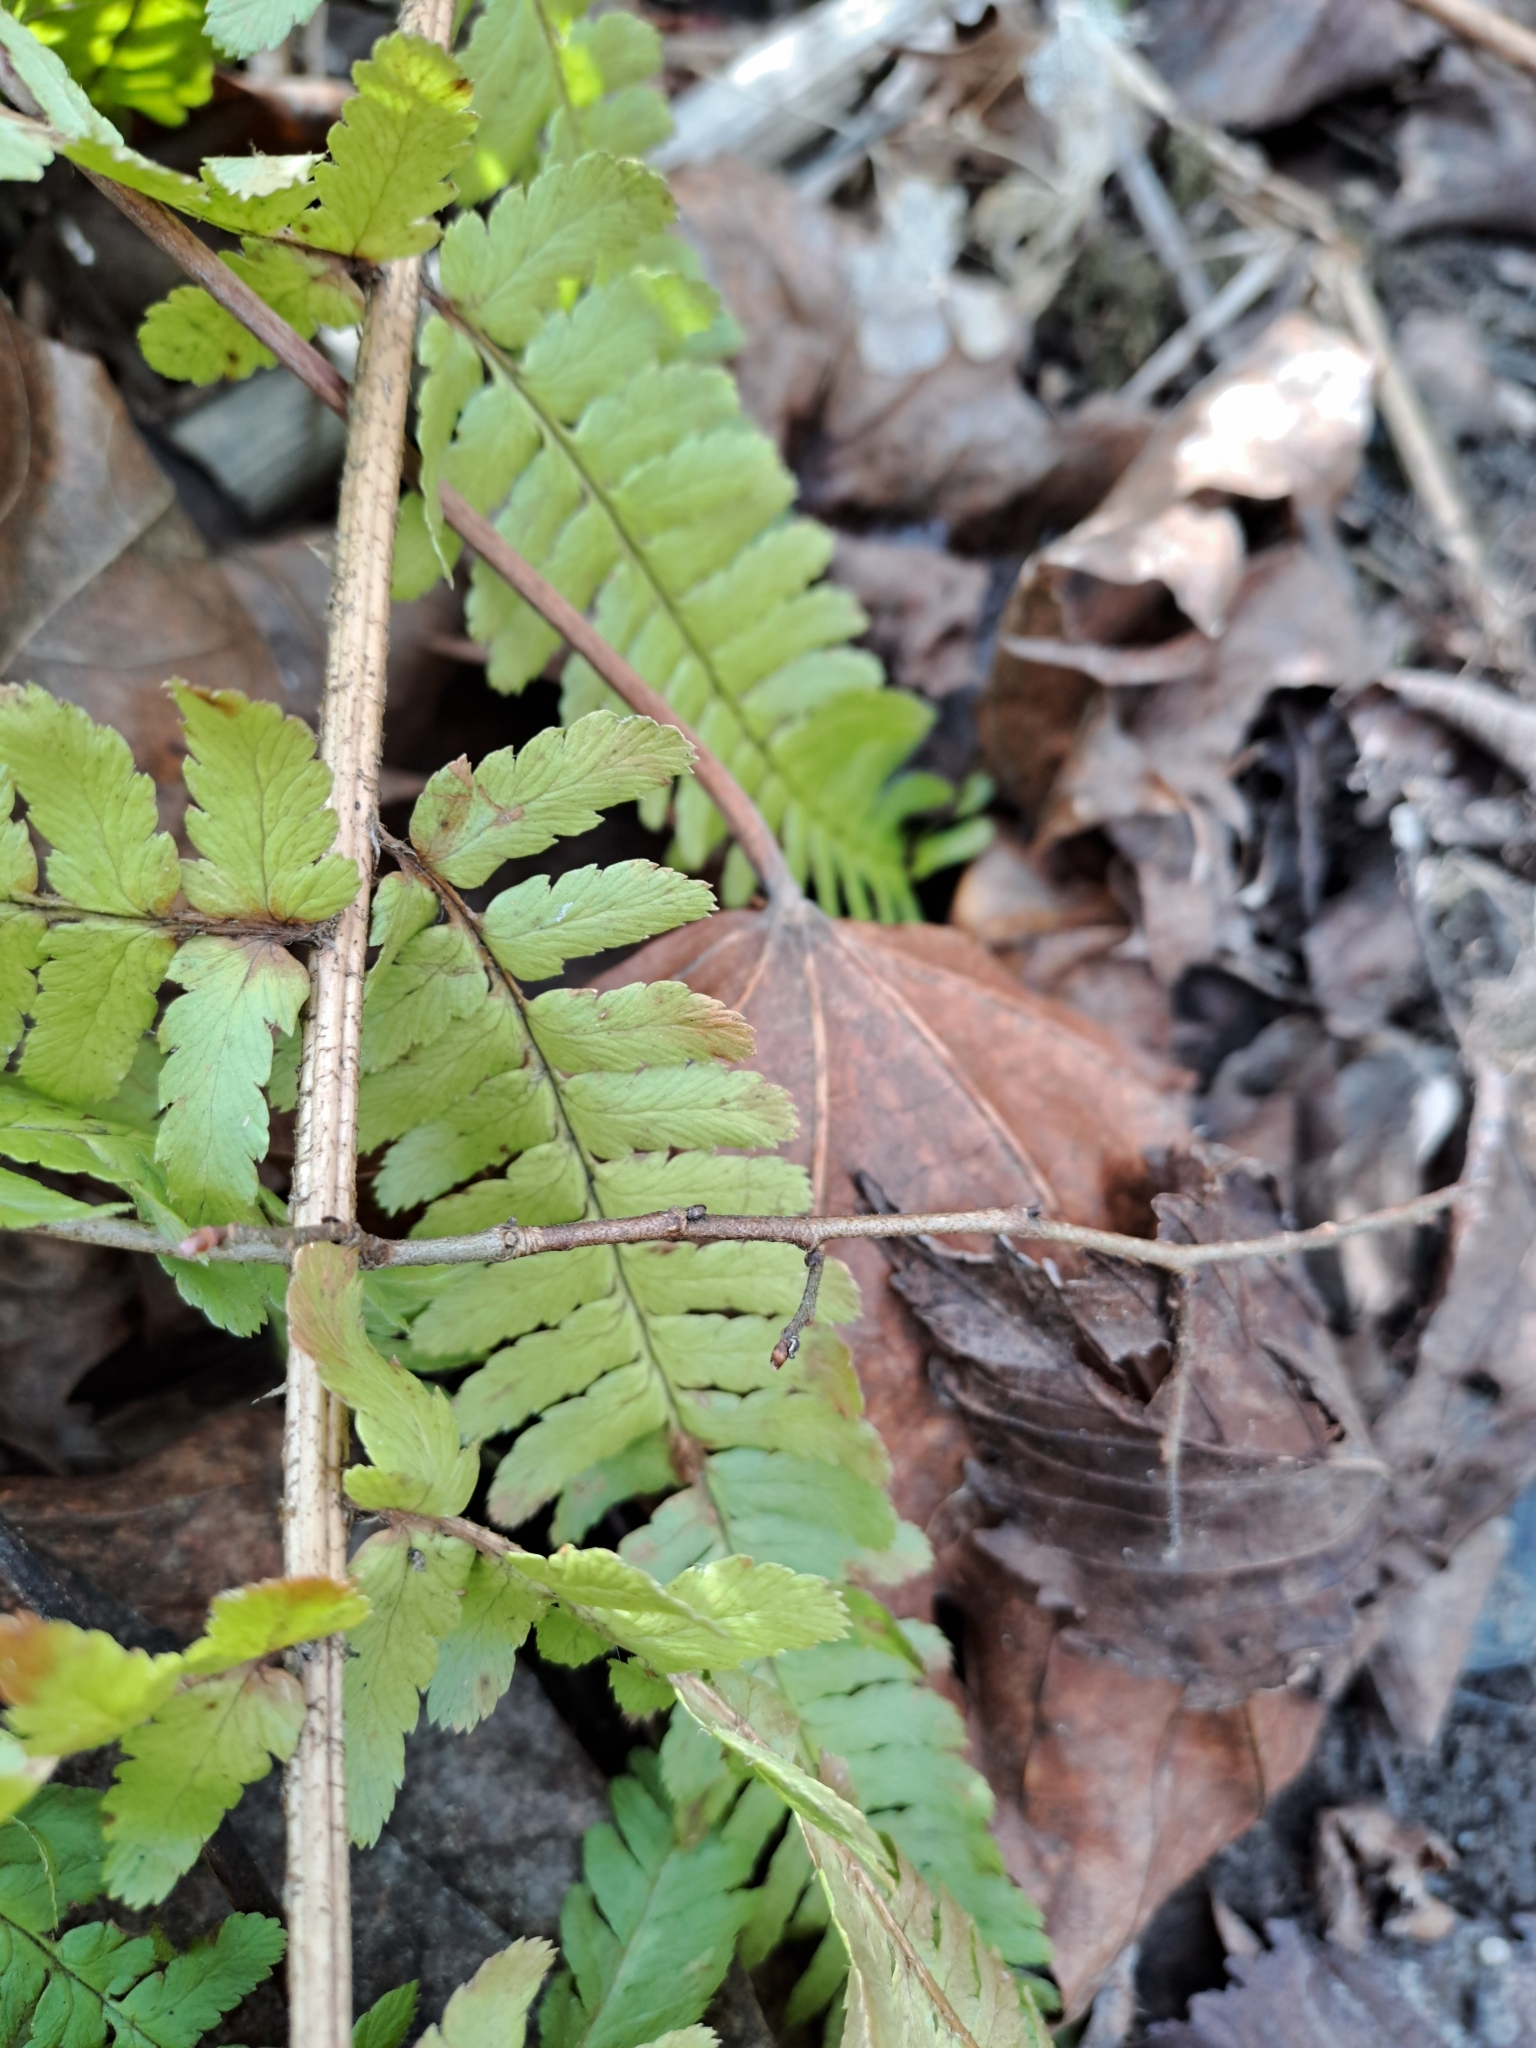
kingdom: Plantae
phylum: Tracheophyta
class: Polypodiopsida
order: Polypodiales
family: Dryopteridaceae
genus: Dryopteris
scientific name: Dryopteris filix-mas
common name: Male fern
